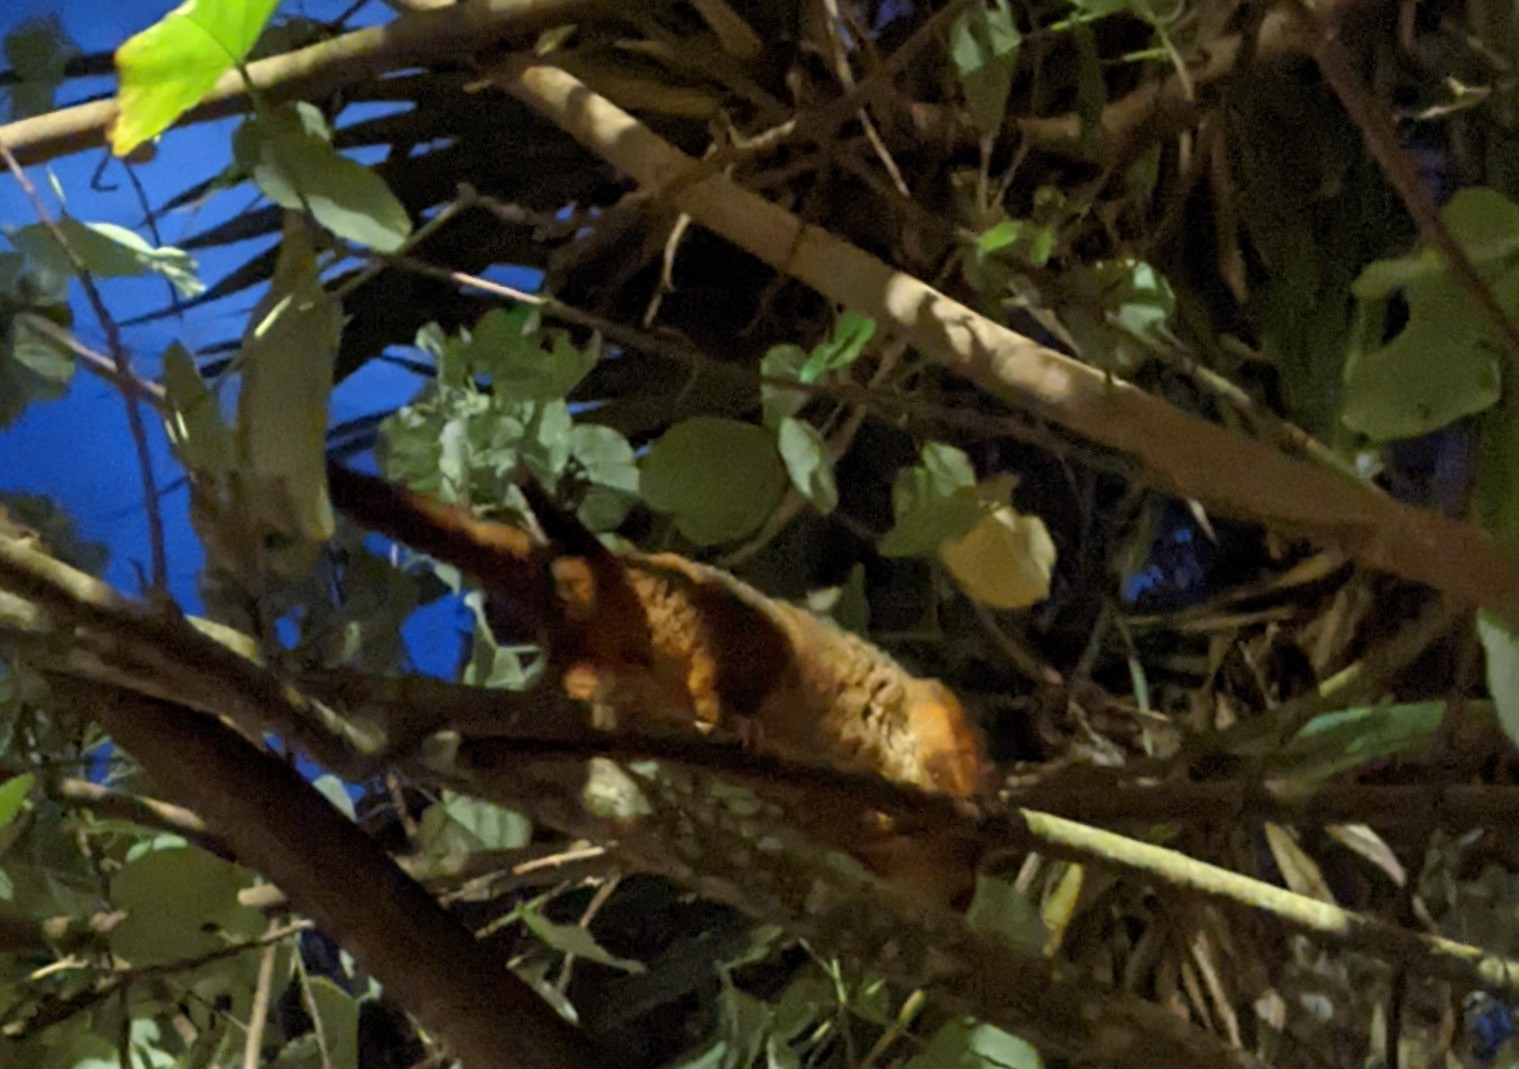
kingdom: Animalia
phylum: Chordata
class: Mammalia
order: Diprotodontia
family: Pseudocheiridae
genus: Pseudocheirus
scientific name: Pseudocheirus peregrinus
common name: Common ringtail possum
